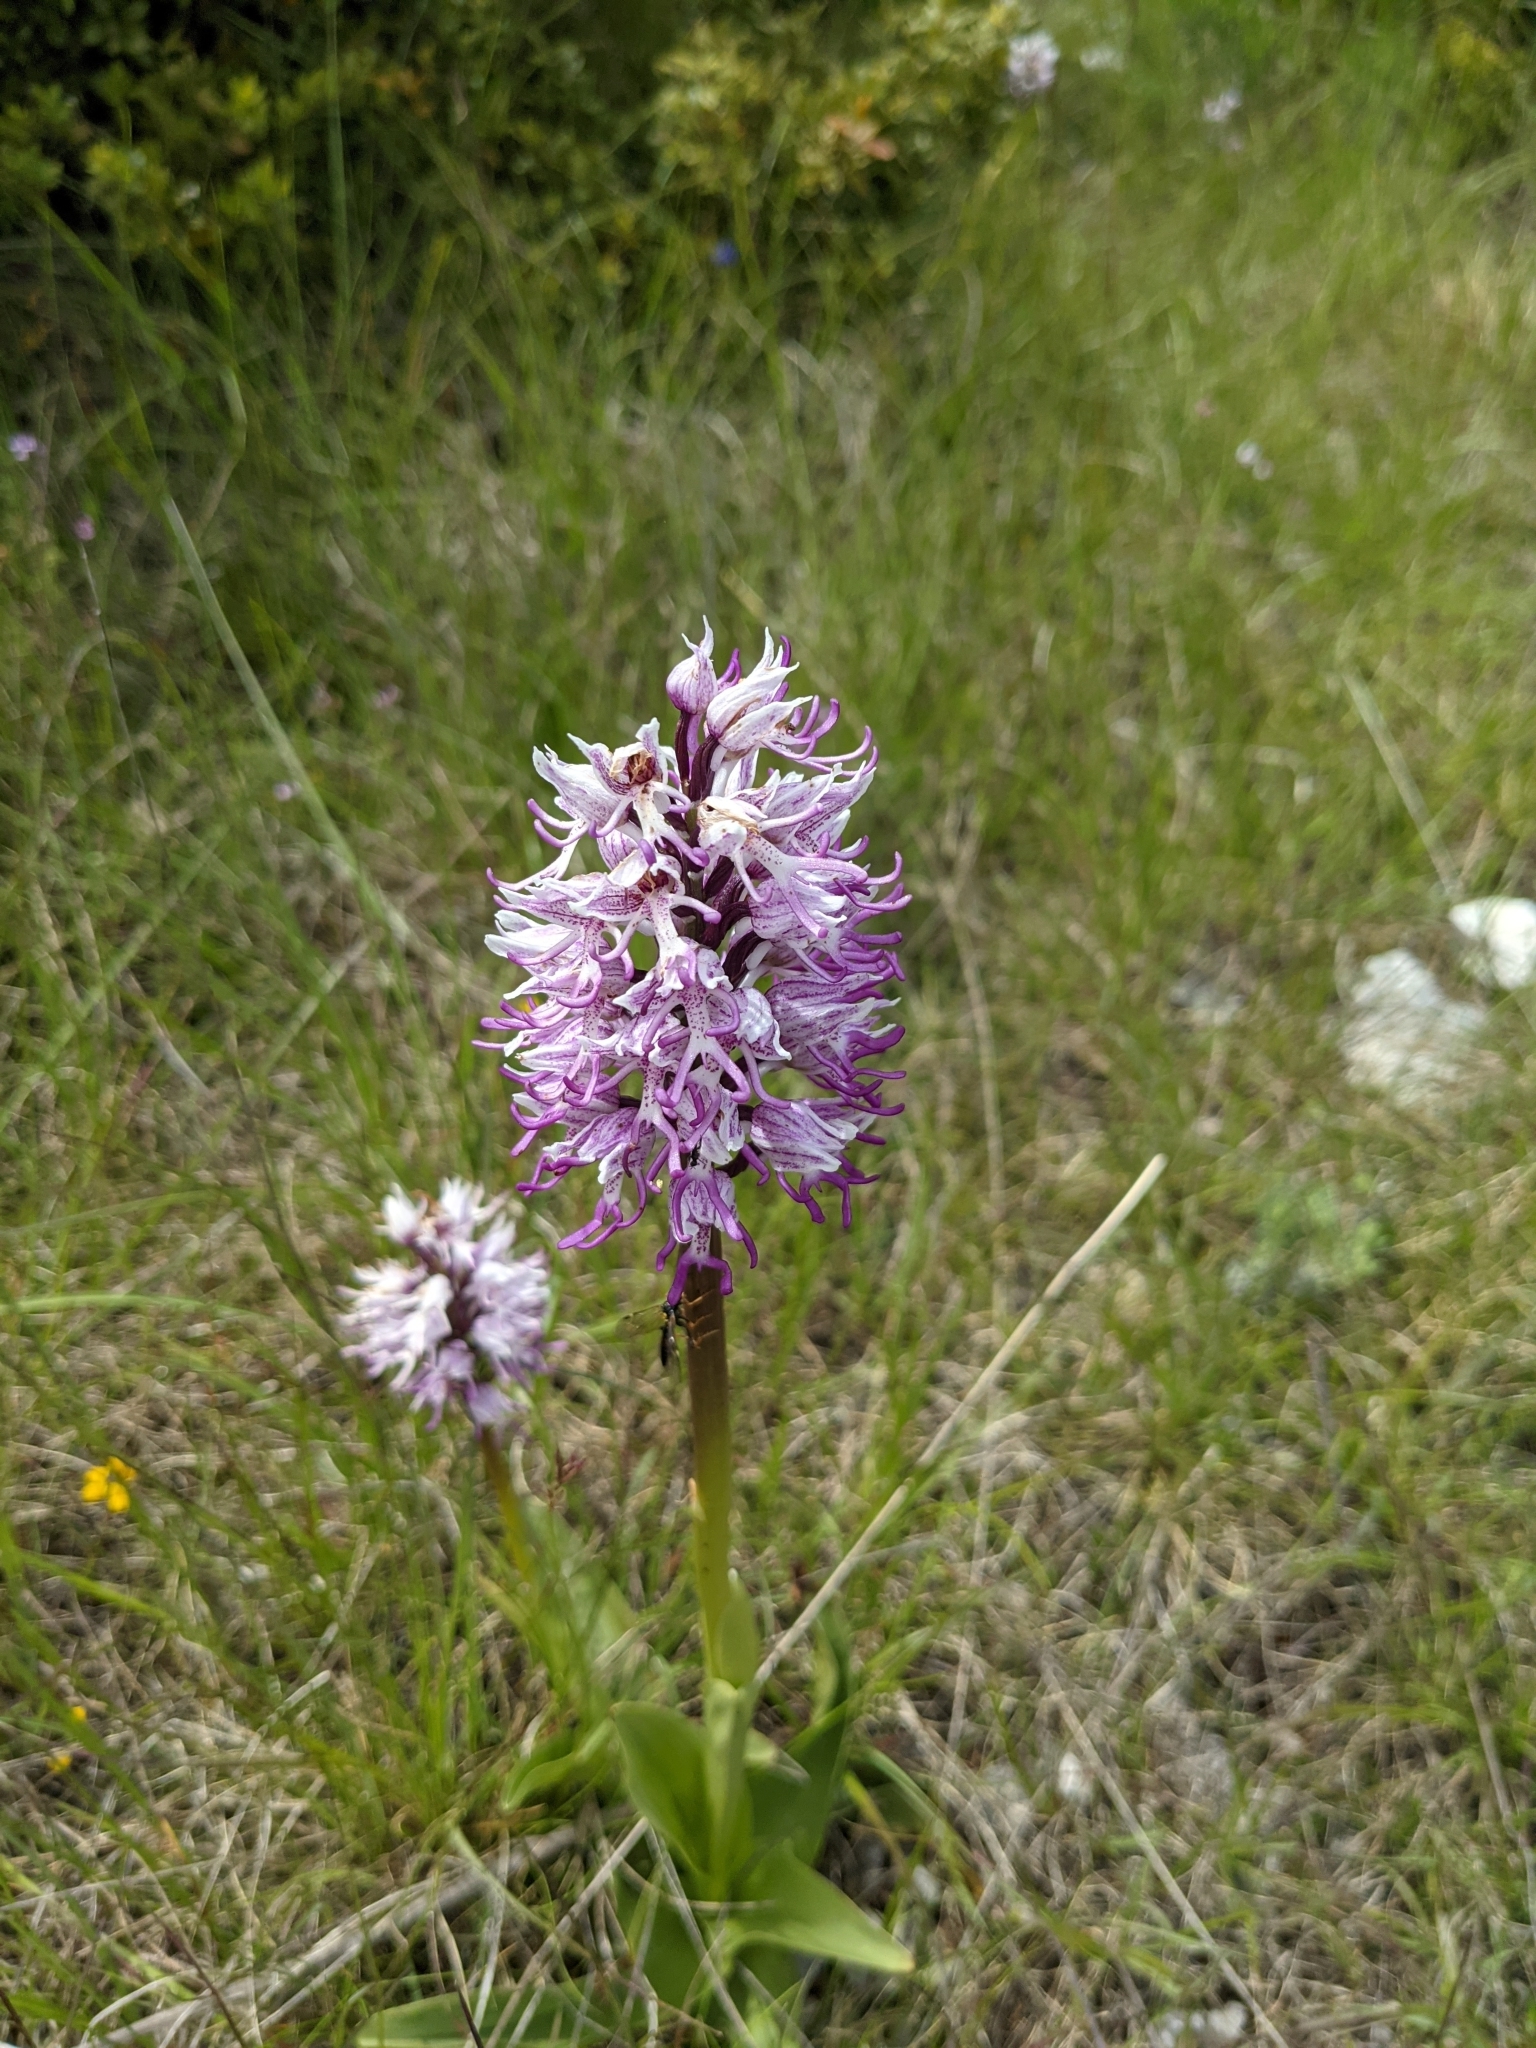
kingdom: Plantae
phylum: Tracheophyta
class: Liliopsida
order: Asparagales
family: Orchidaceae
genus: Orchis
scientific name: Orchis simia
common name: Monkey orchid
